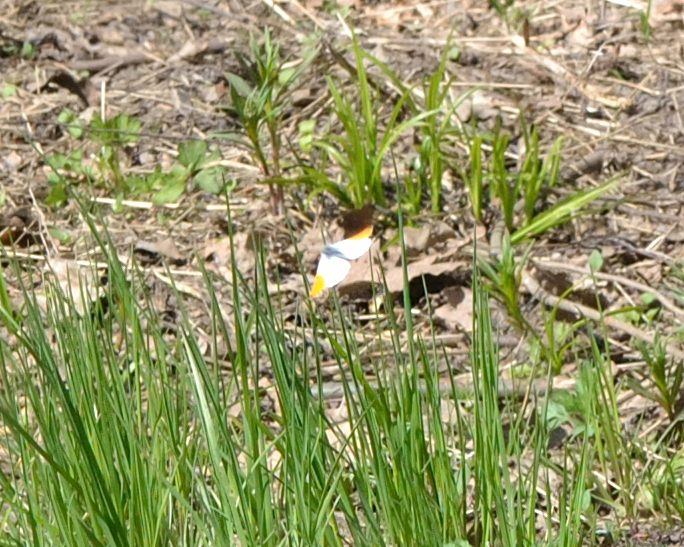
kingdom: Animalia
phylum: Arthropoda
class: Insecta
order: Lepidoptera
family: Pieridae
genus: Anthocharis
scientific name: Anthocharis cardamines
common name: Orange-tip
